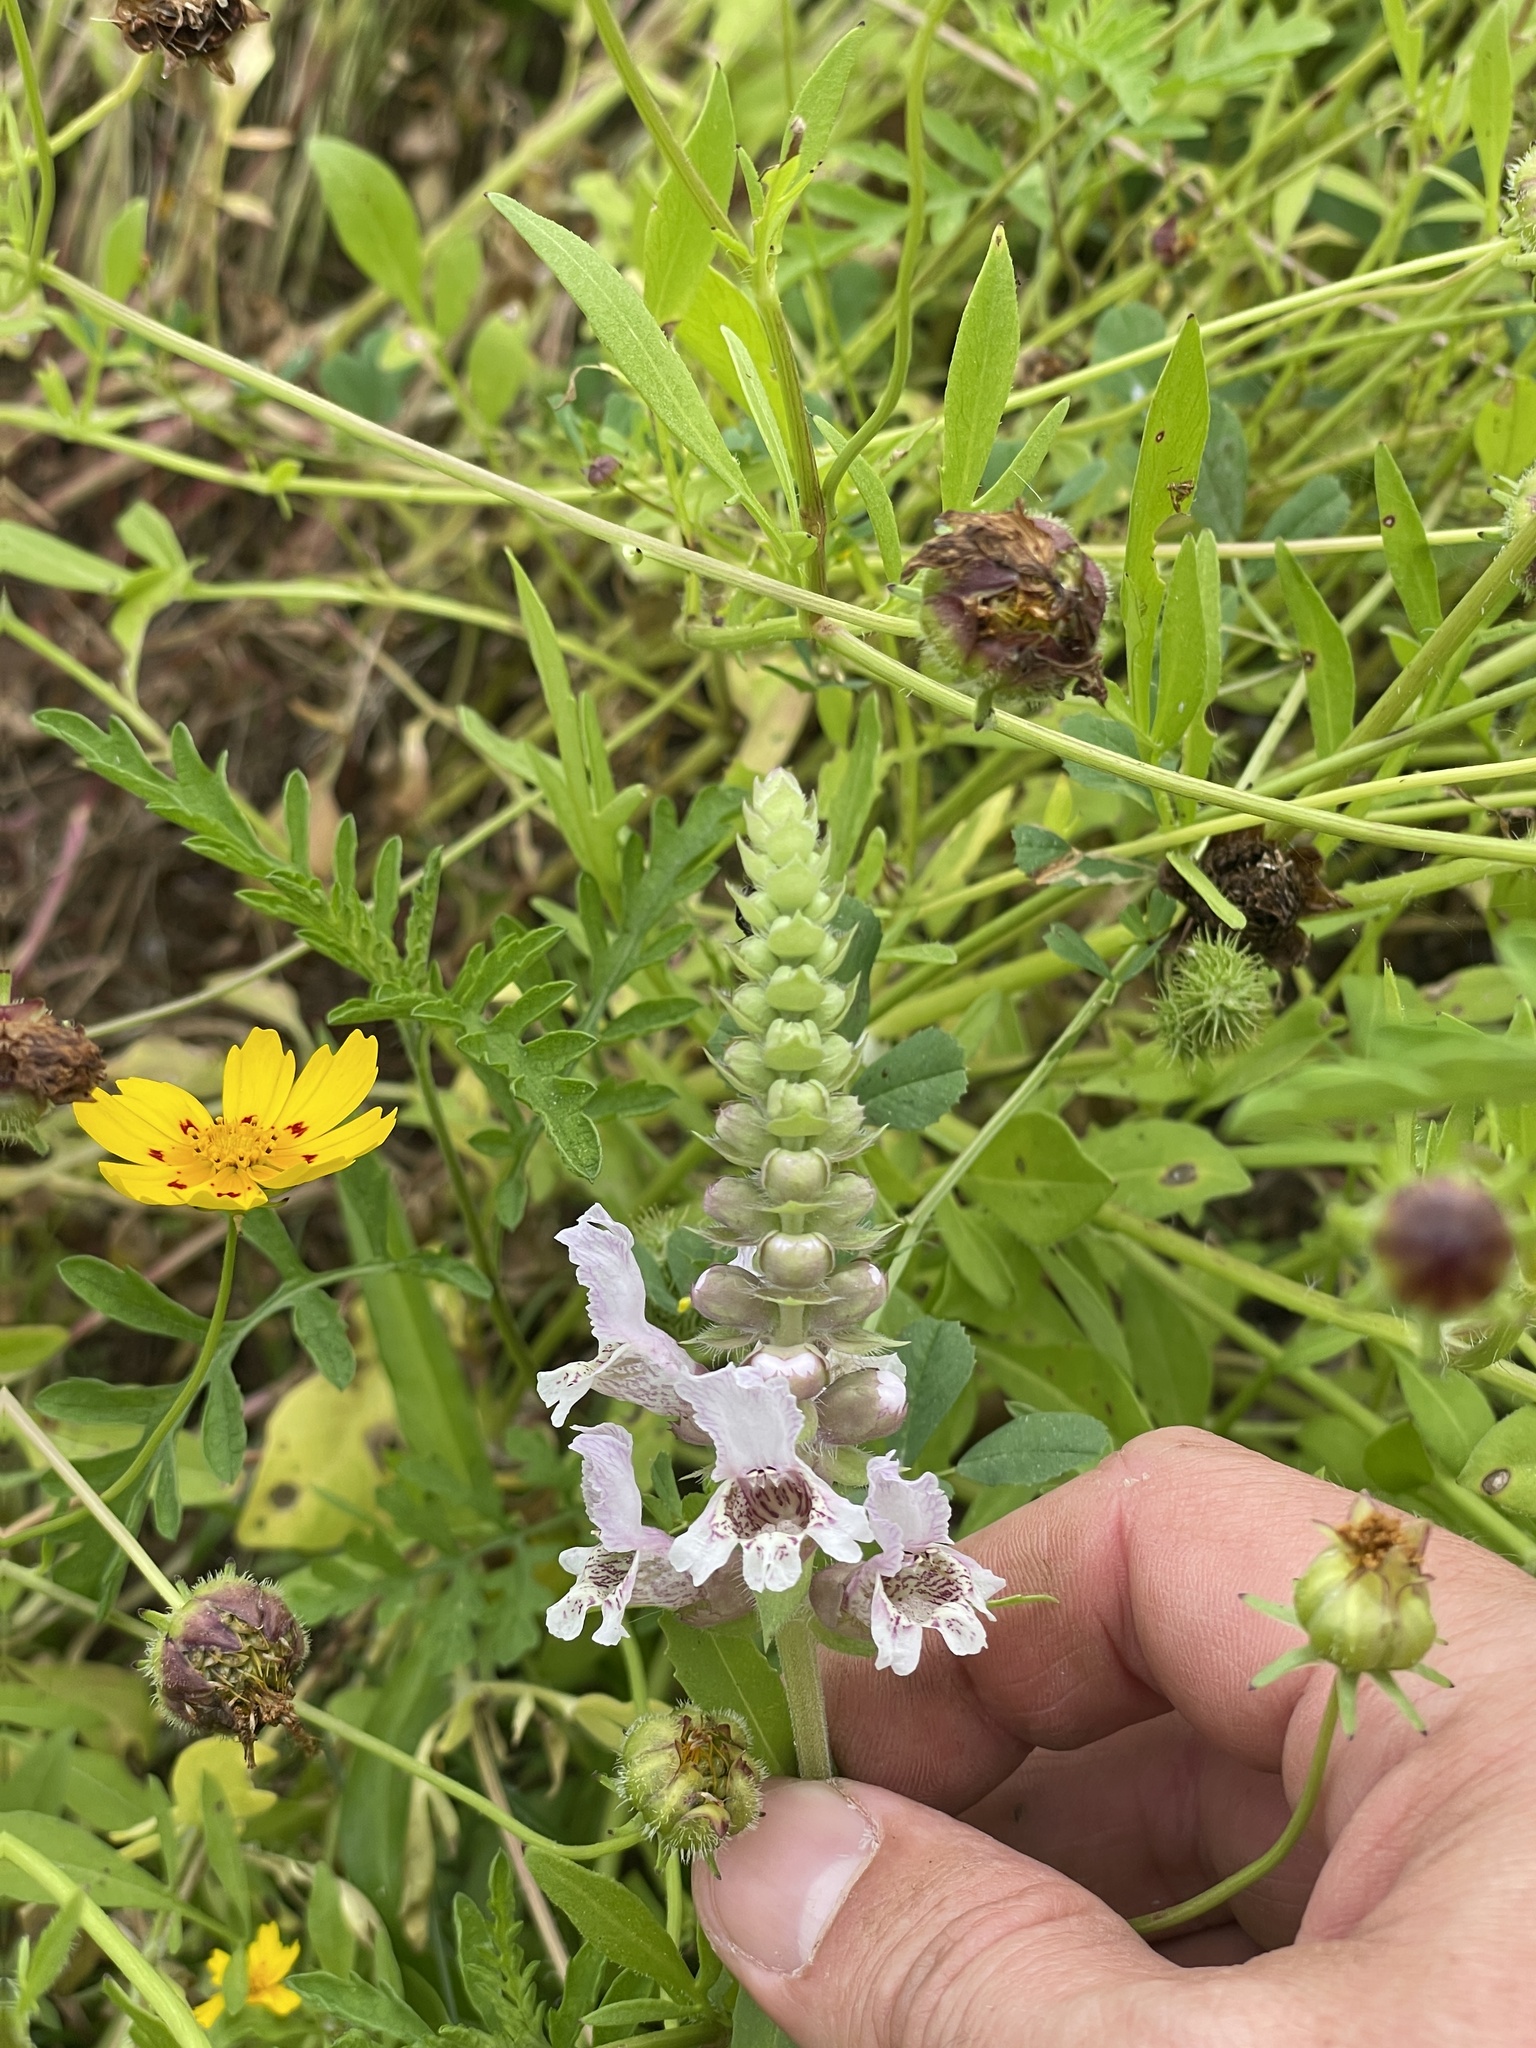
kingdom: Plantae
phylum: Tracheophyta
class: Magnoliopsida
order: Lamiales
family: Lamiaceae
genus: Brazoria
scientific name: Brazoria truncata
